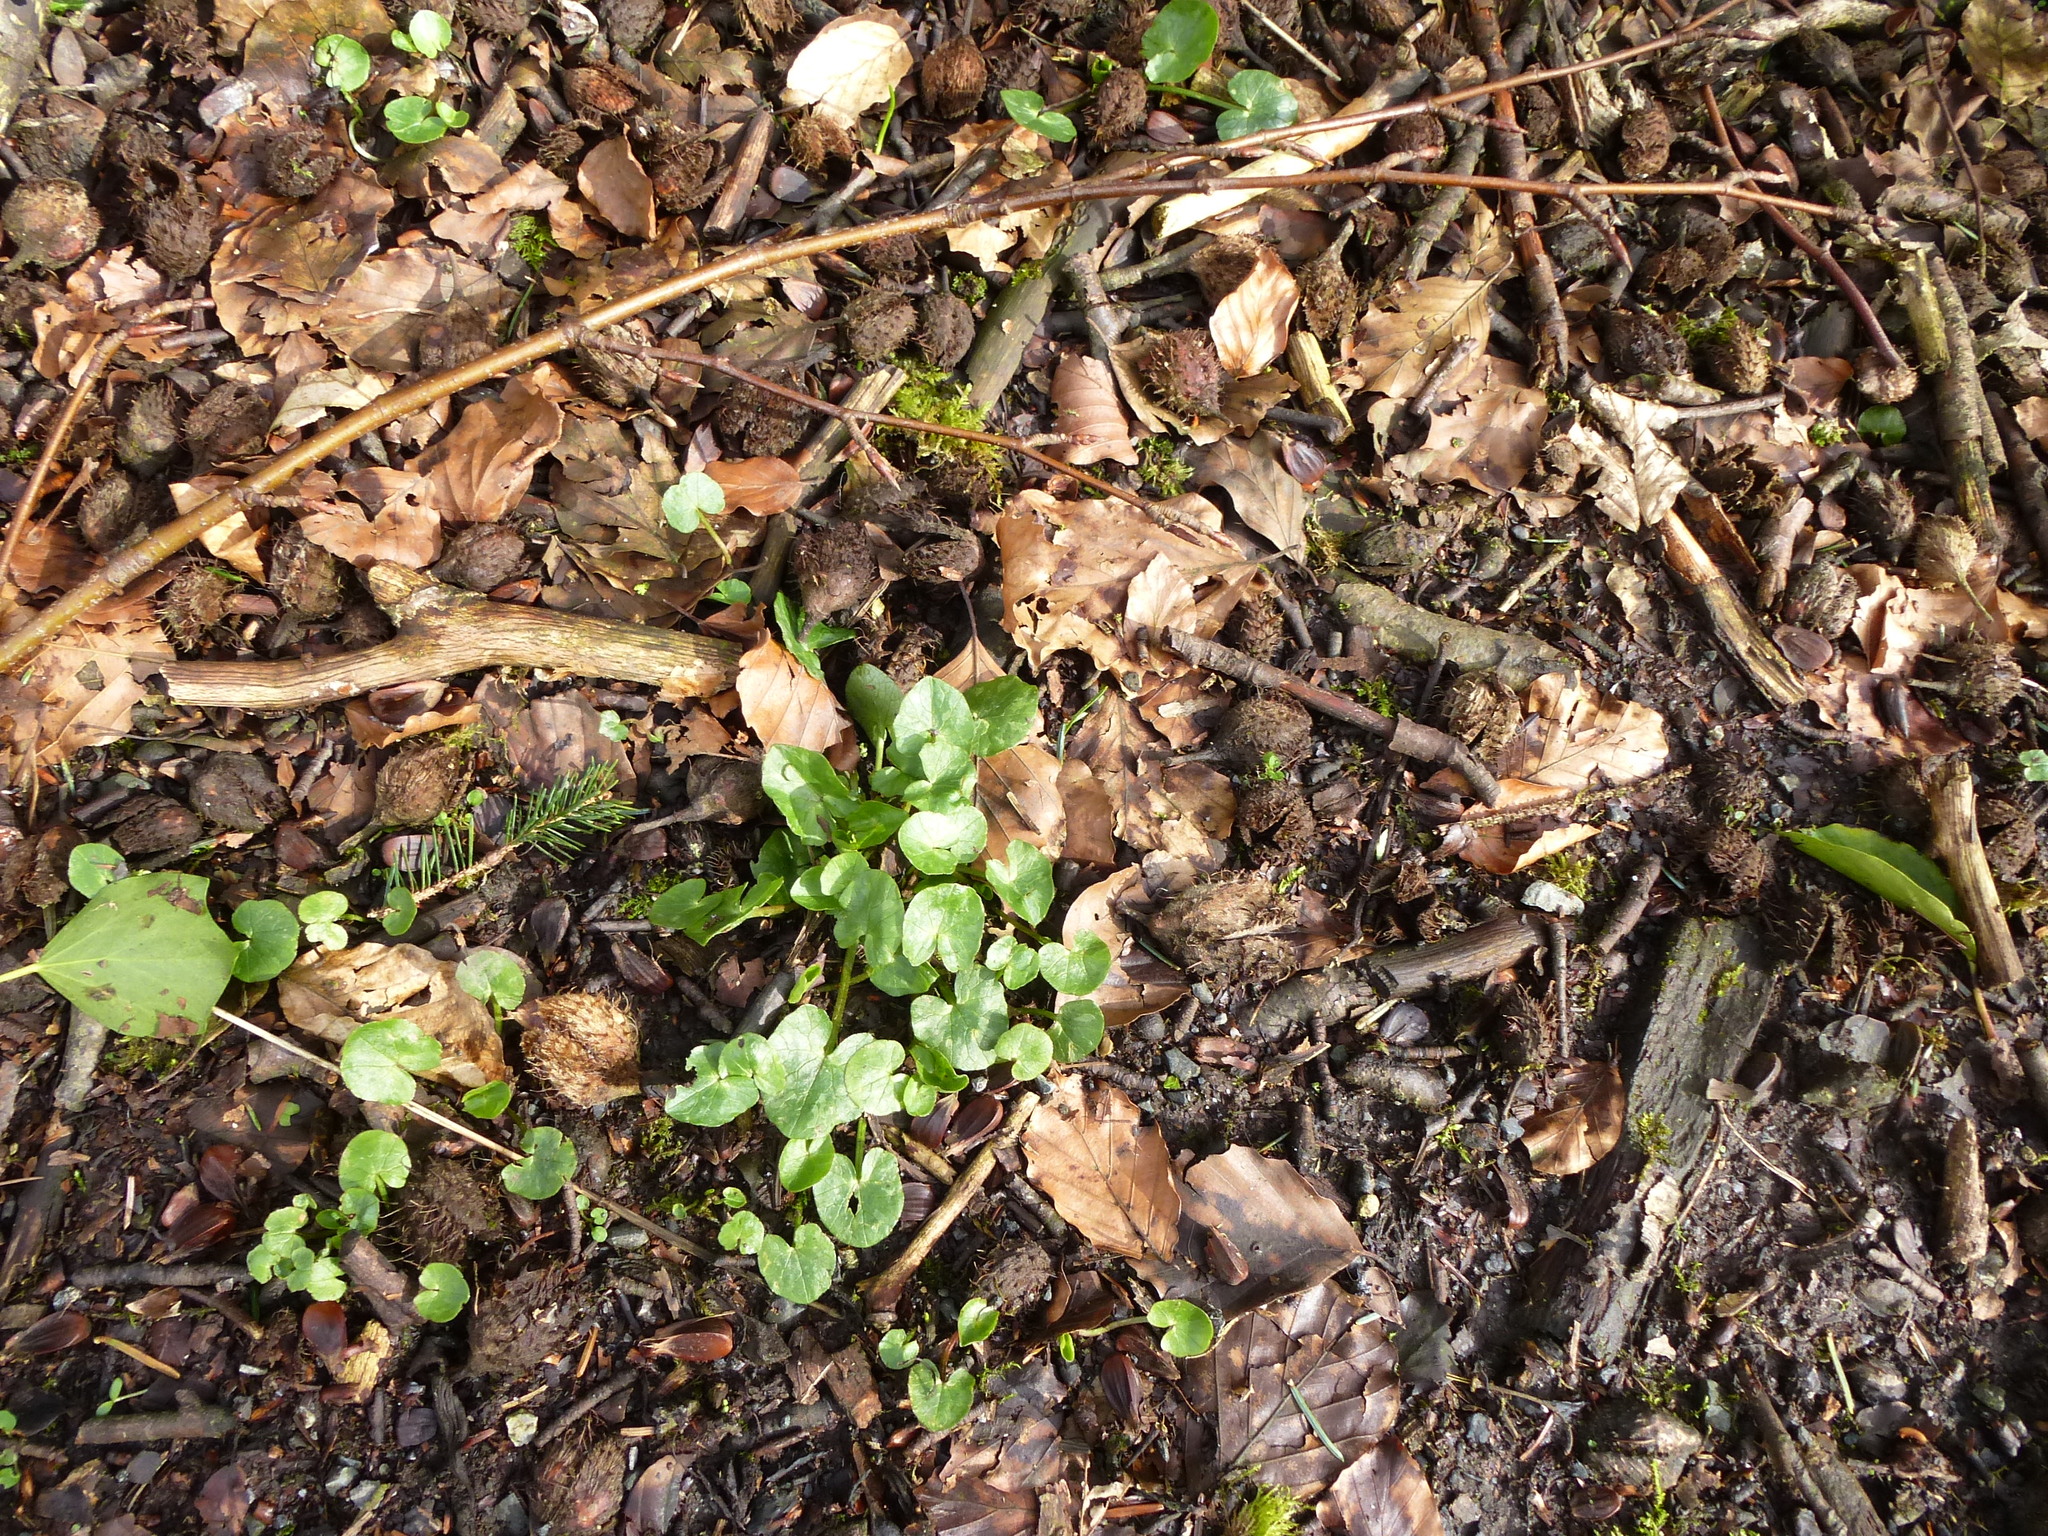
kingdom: Plantae
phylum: Tracheophyta
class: Magnoliopsida
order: Fagales
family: Fagaceae
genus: Fagus
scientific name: Fagus sylvatica
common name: Beech
